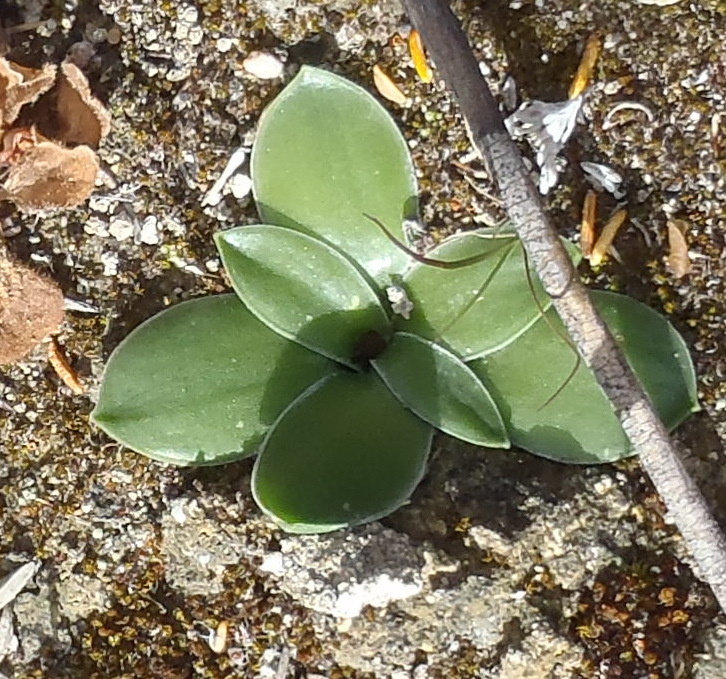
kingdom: Plantae
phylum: Tracheophyta
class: Liliopsida
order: Asparagales
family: Asparagaceae
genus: Drimia
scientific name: Drimia ciliata
